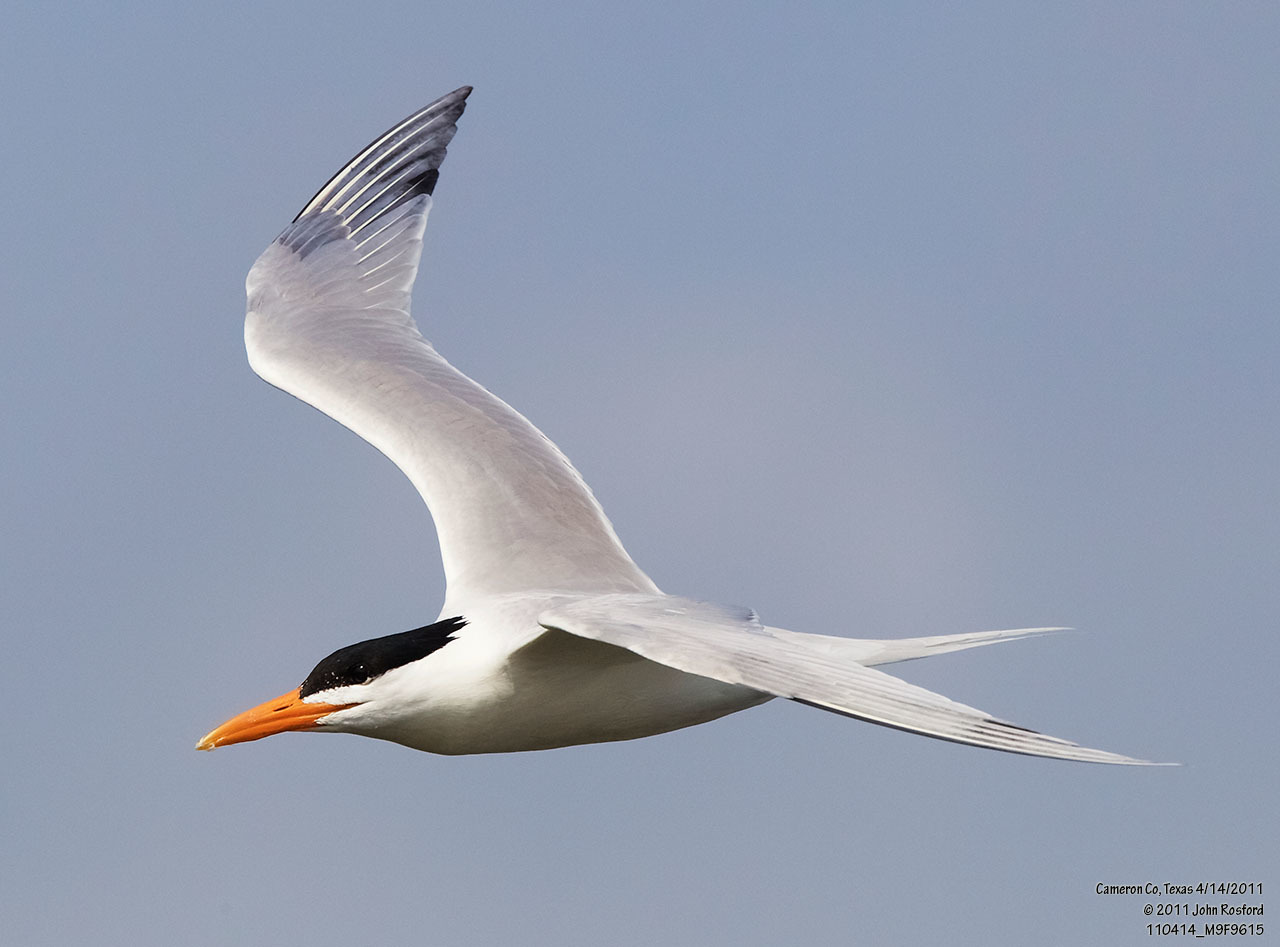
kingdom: Animalia
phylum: Chordata
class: Aves
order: Charadriiformes
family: Laridae
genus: Thalasseus
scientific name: Thalasseus maximus
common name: Royal tern
